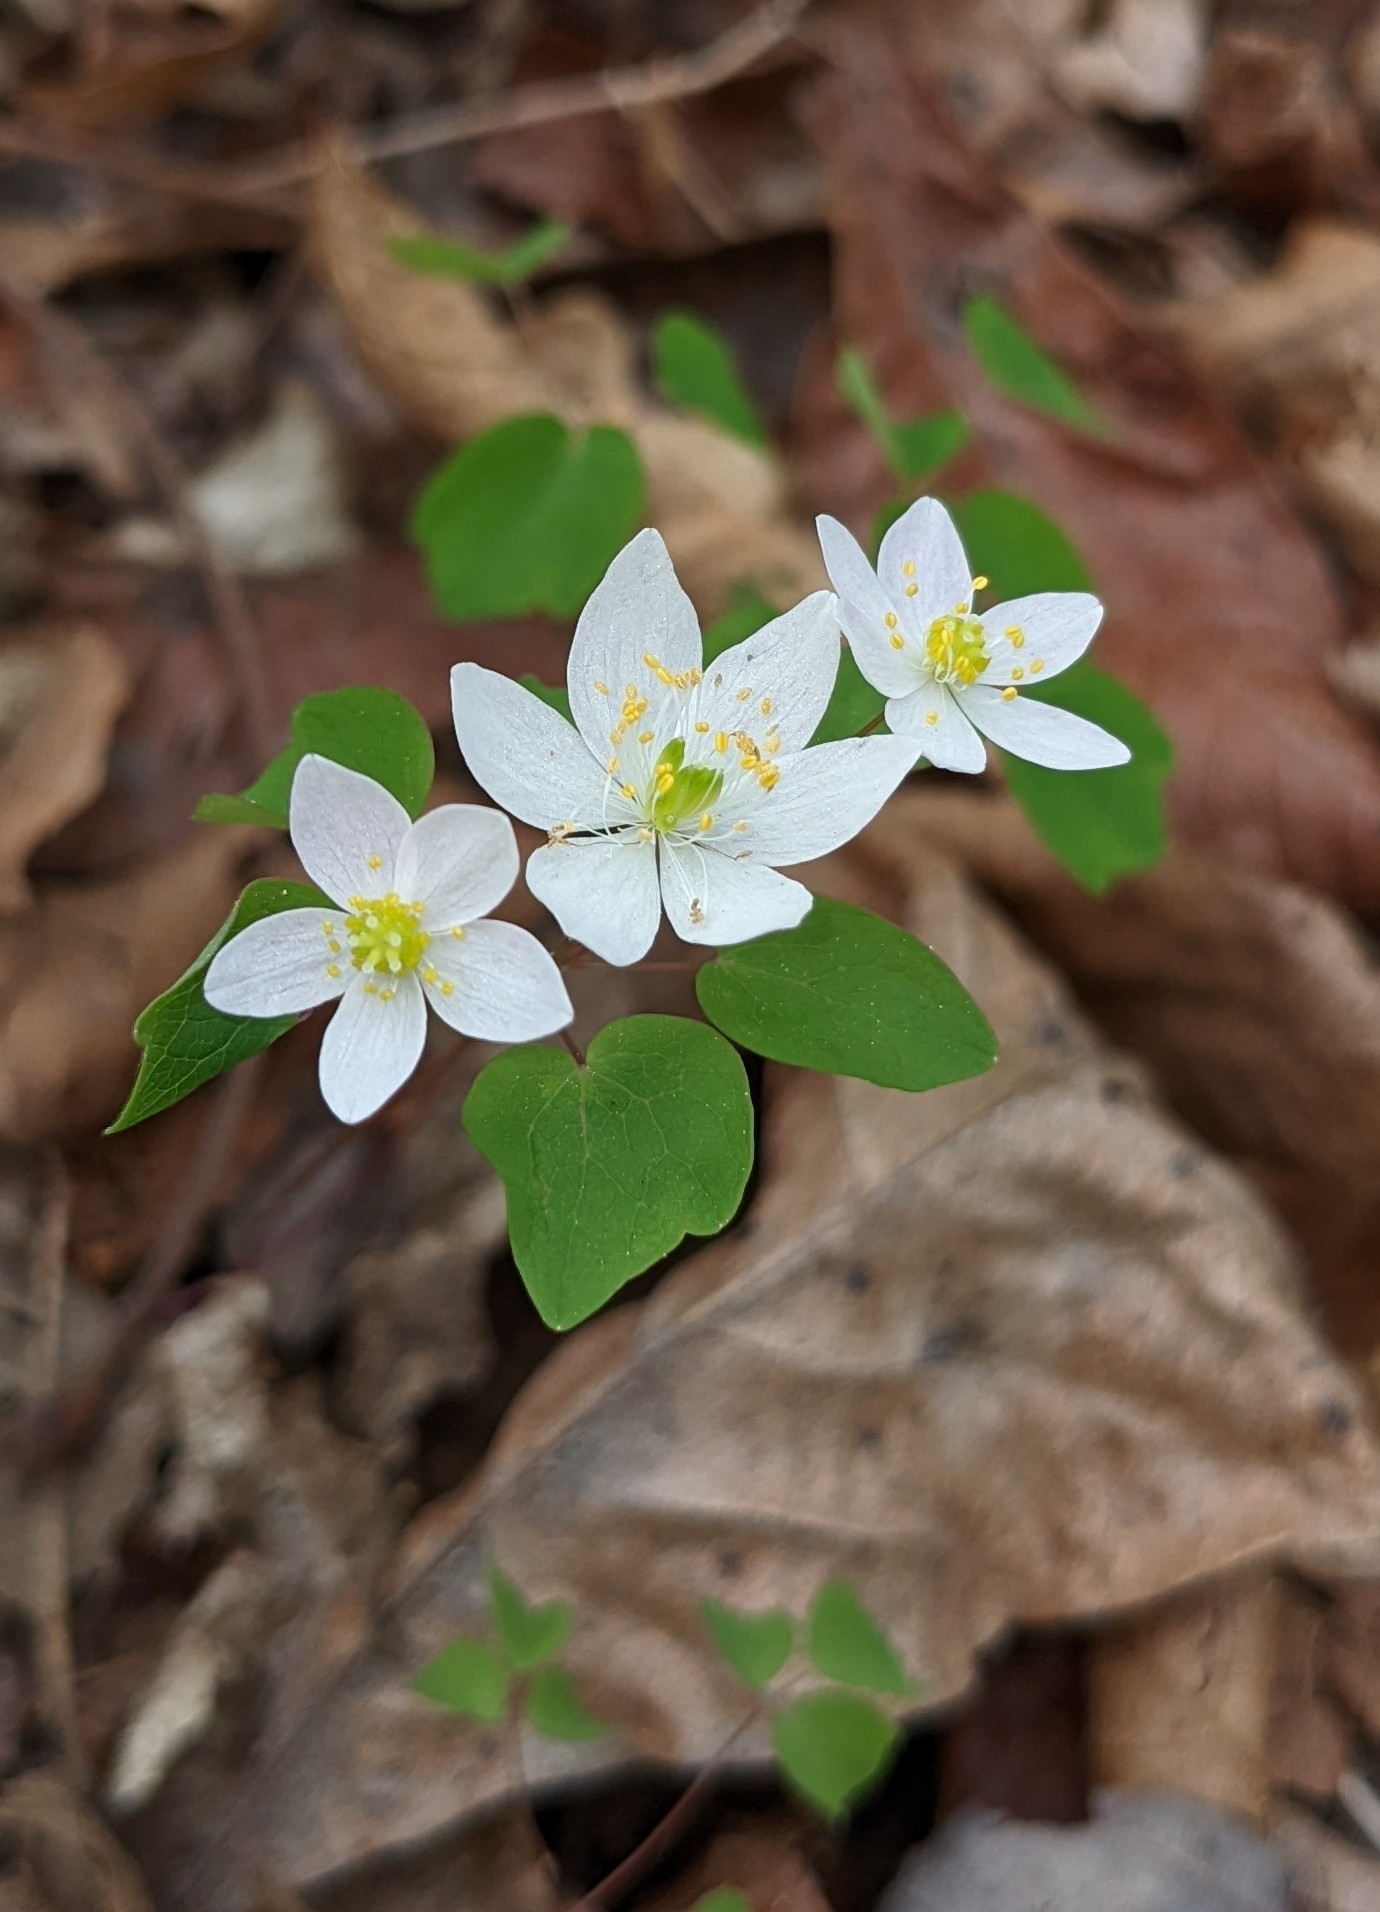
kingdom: Plantae
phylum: Tracheophyta
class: Magnoliopsida
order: Ranunculales
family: Ranunculaceae
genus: Thalictrum
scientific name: Thalictrum thalictroides
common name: Rue-anemone
